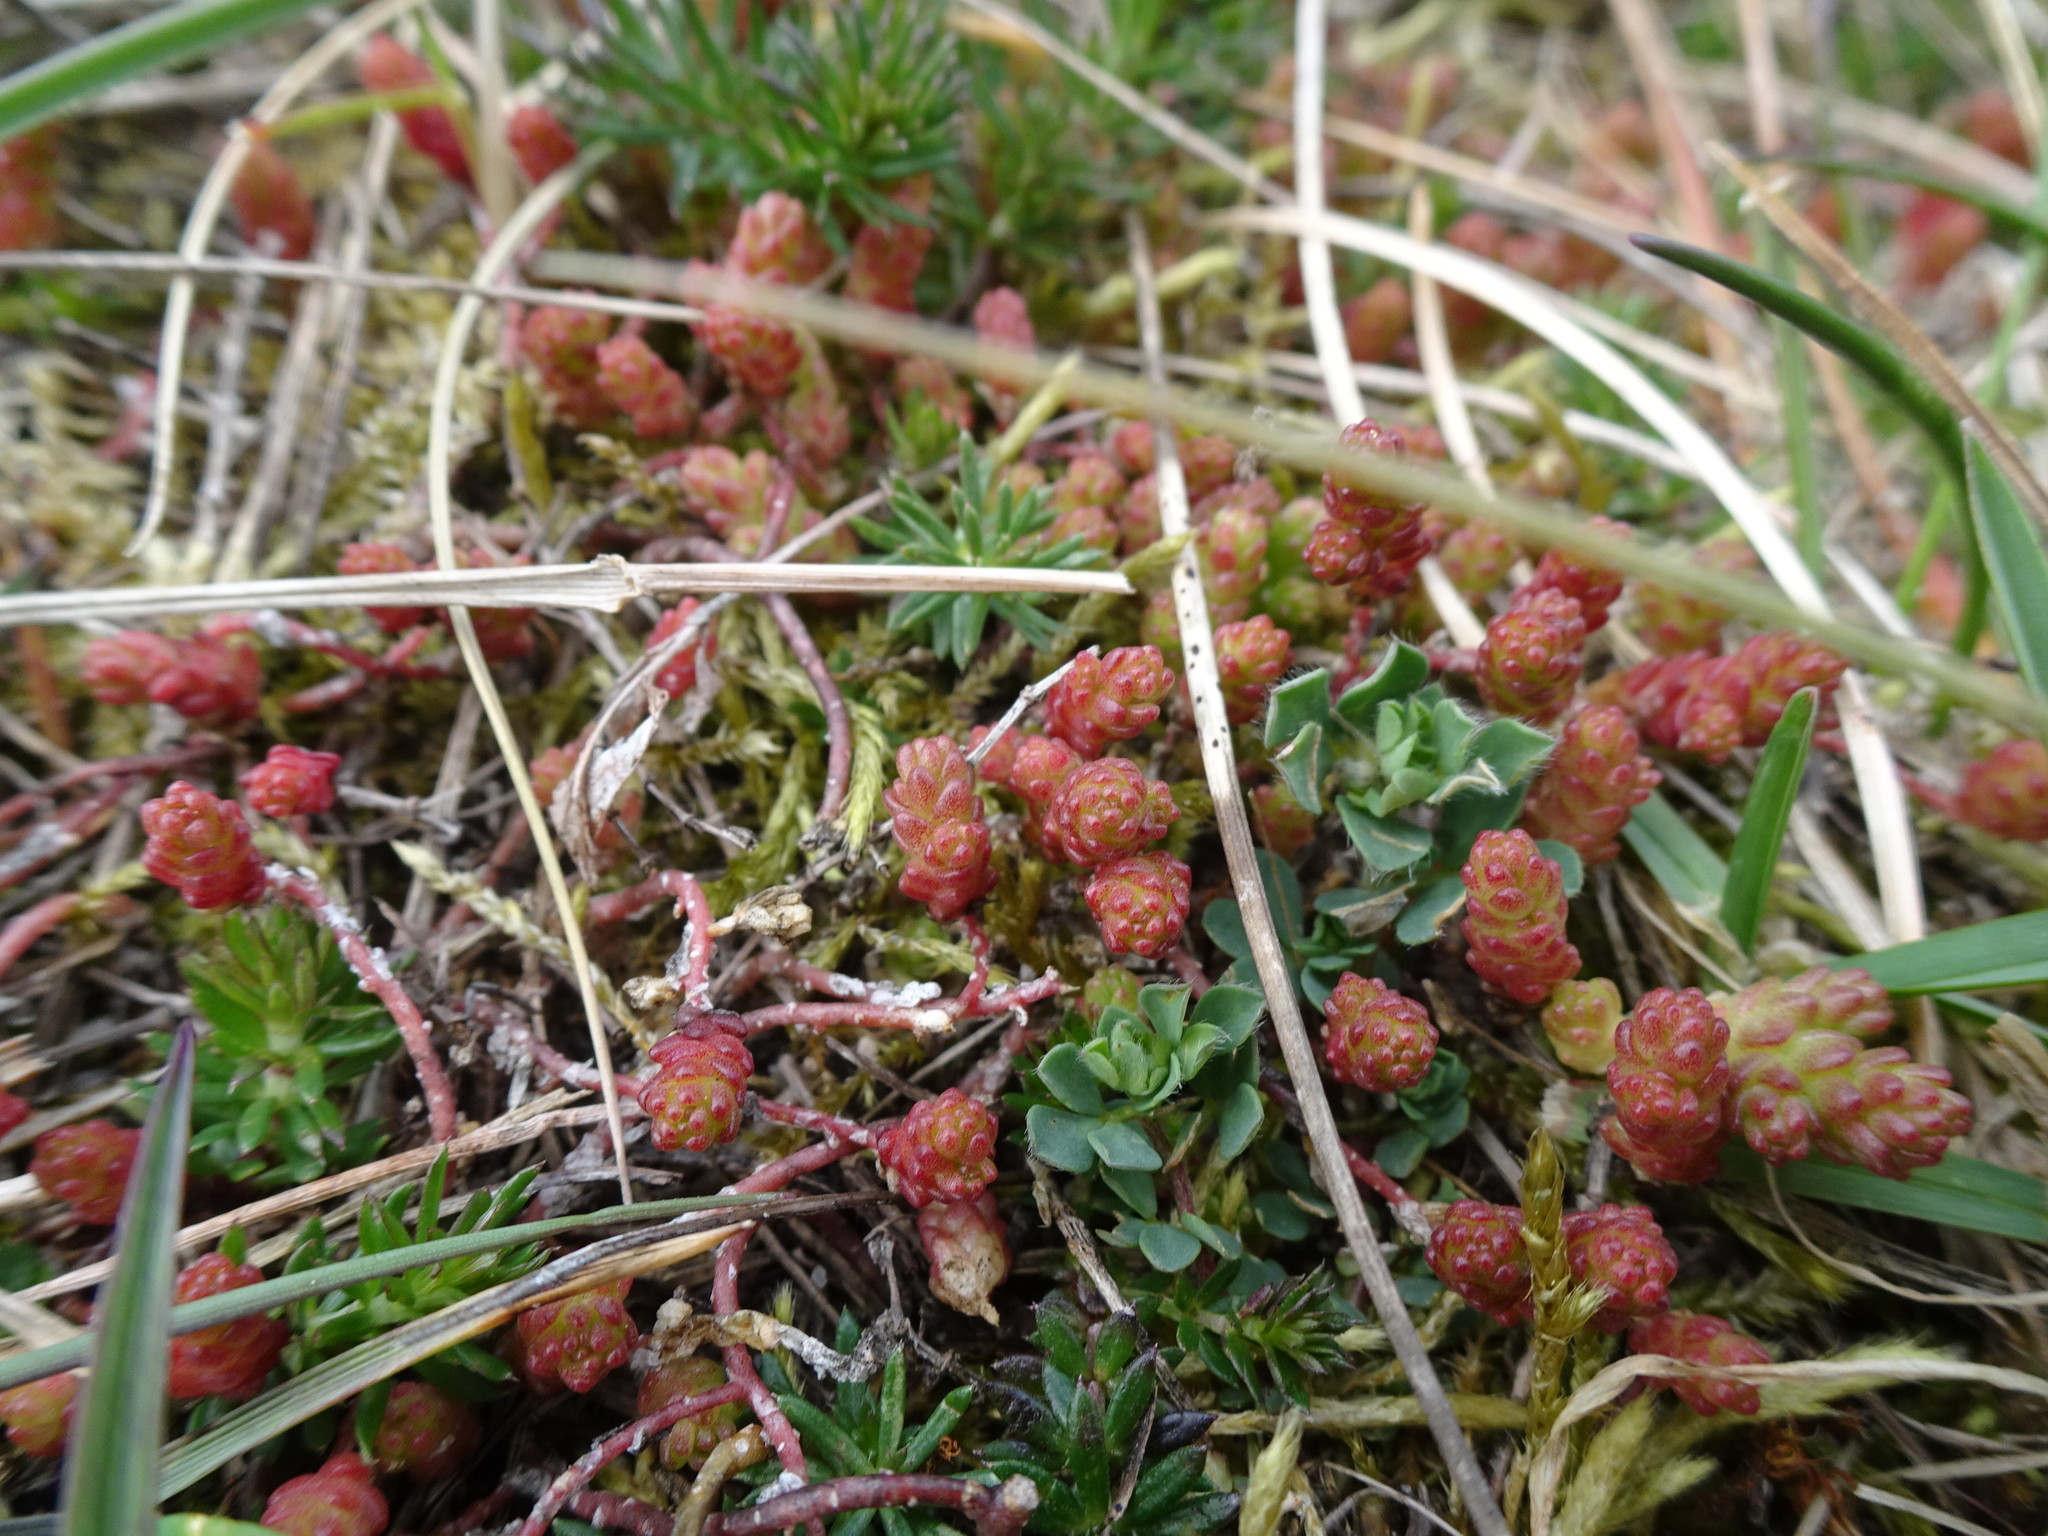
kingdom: Plantae
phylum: Tracheophyta
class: Magnoliopsida
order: Saxifragales
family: Crassulaceae
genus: Sedum
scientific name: Sedum acre
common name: Biting stonecrop
